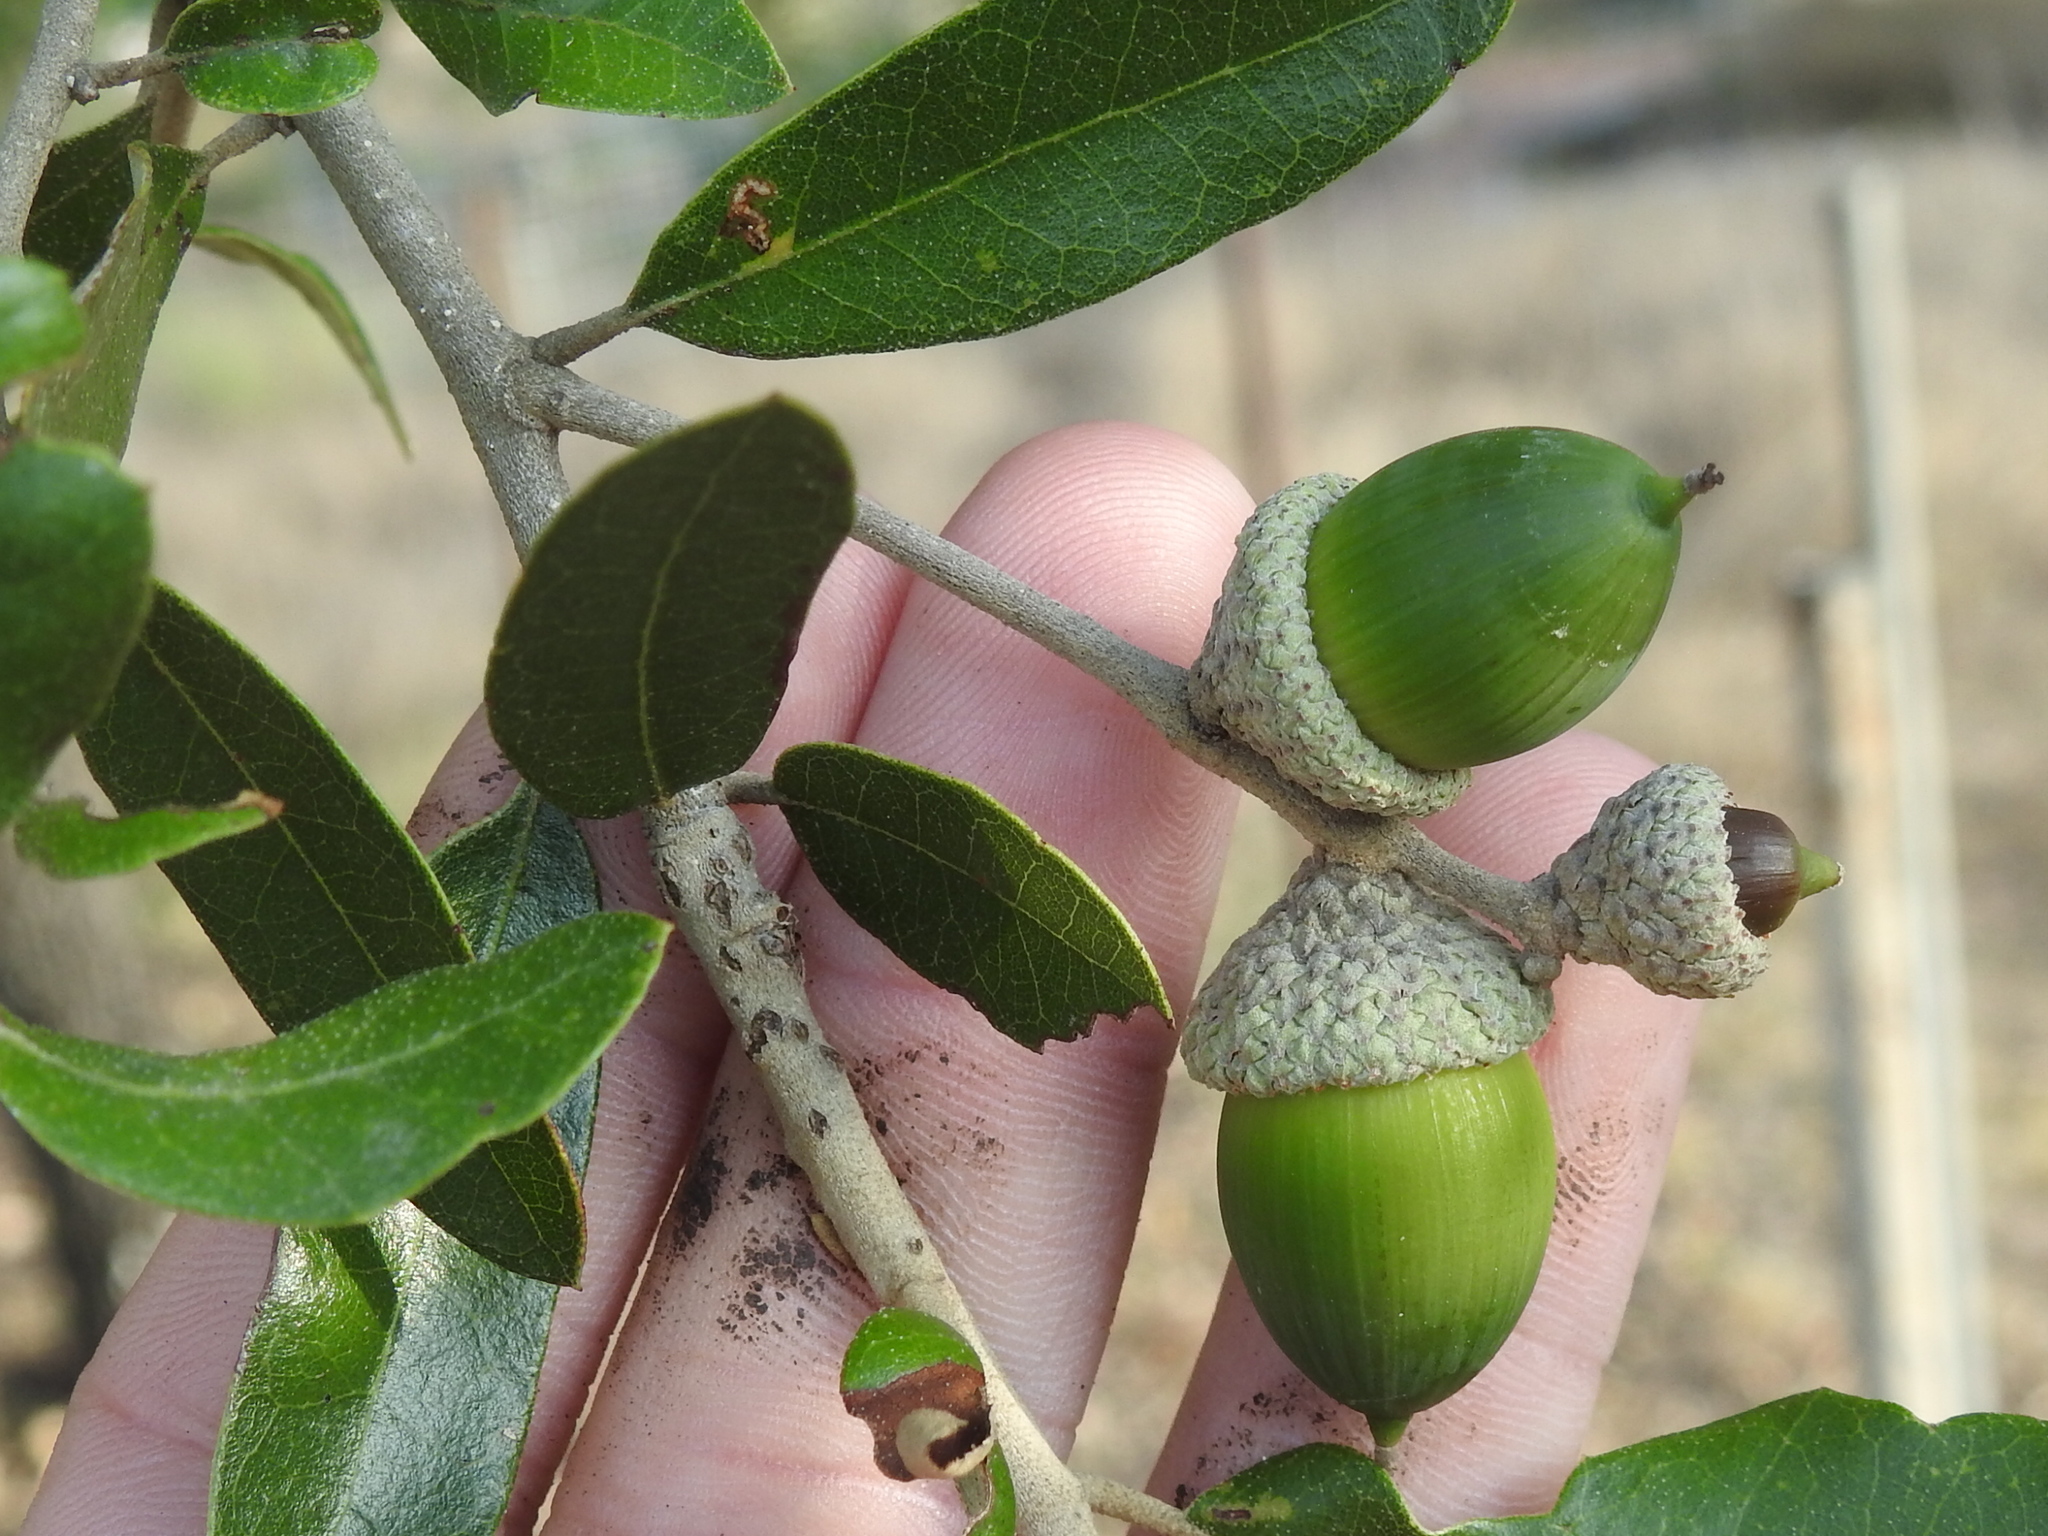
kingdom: Plantae
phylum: Tracheophyta
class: Magnoliopsida
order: Fagales
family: Fagaceae
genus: Quercus
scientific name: Quercus fusiformis
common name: Texas live oak
